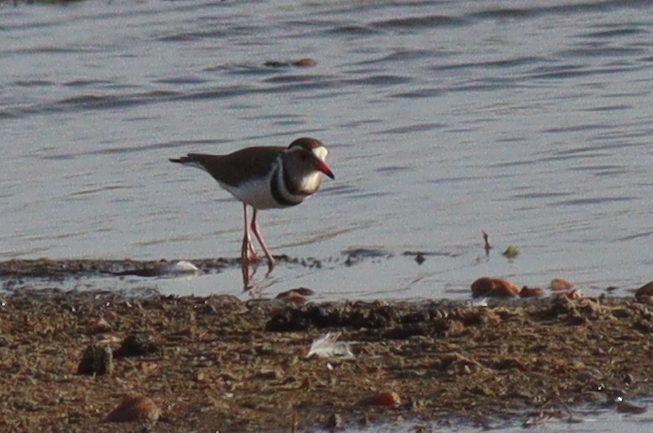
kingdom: Animalia
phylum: Chordata
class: Aves
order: Charadriiformes
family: Charadriidae
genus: Charadrius
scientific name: Charadrius tricollaris
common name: Three-banded plover
